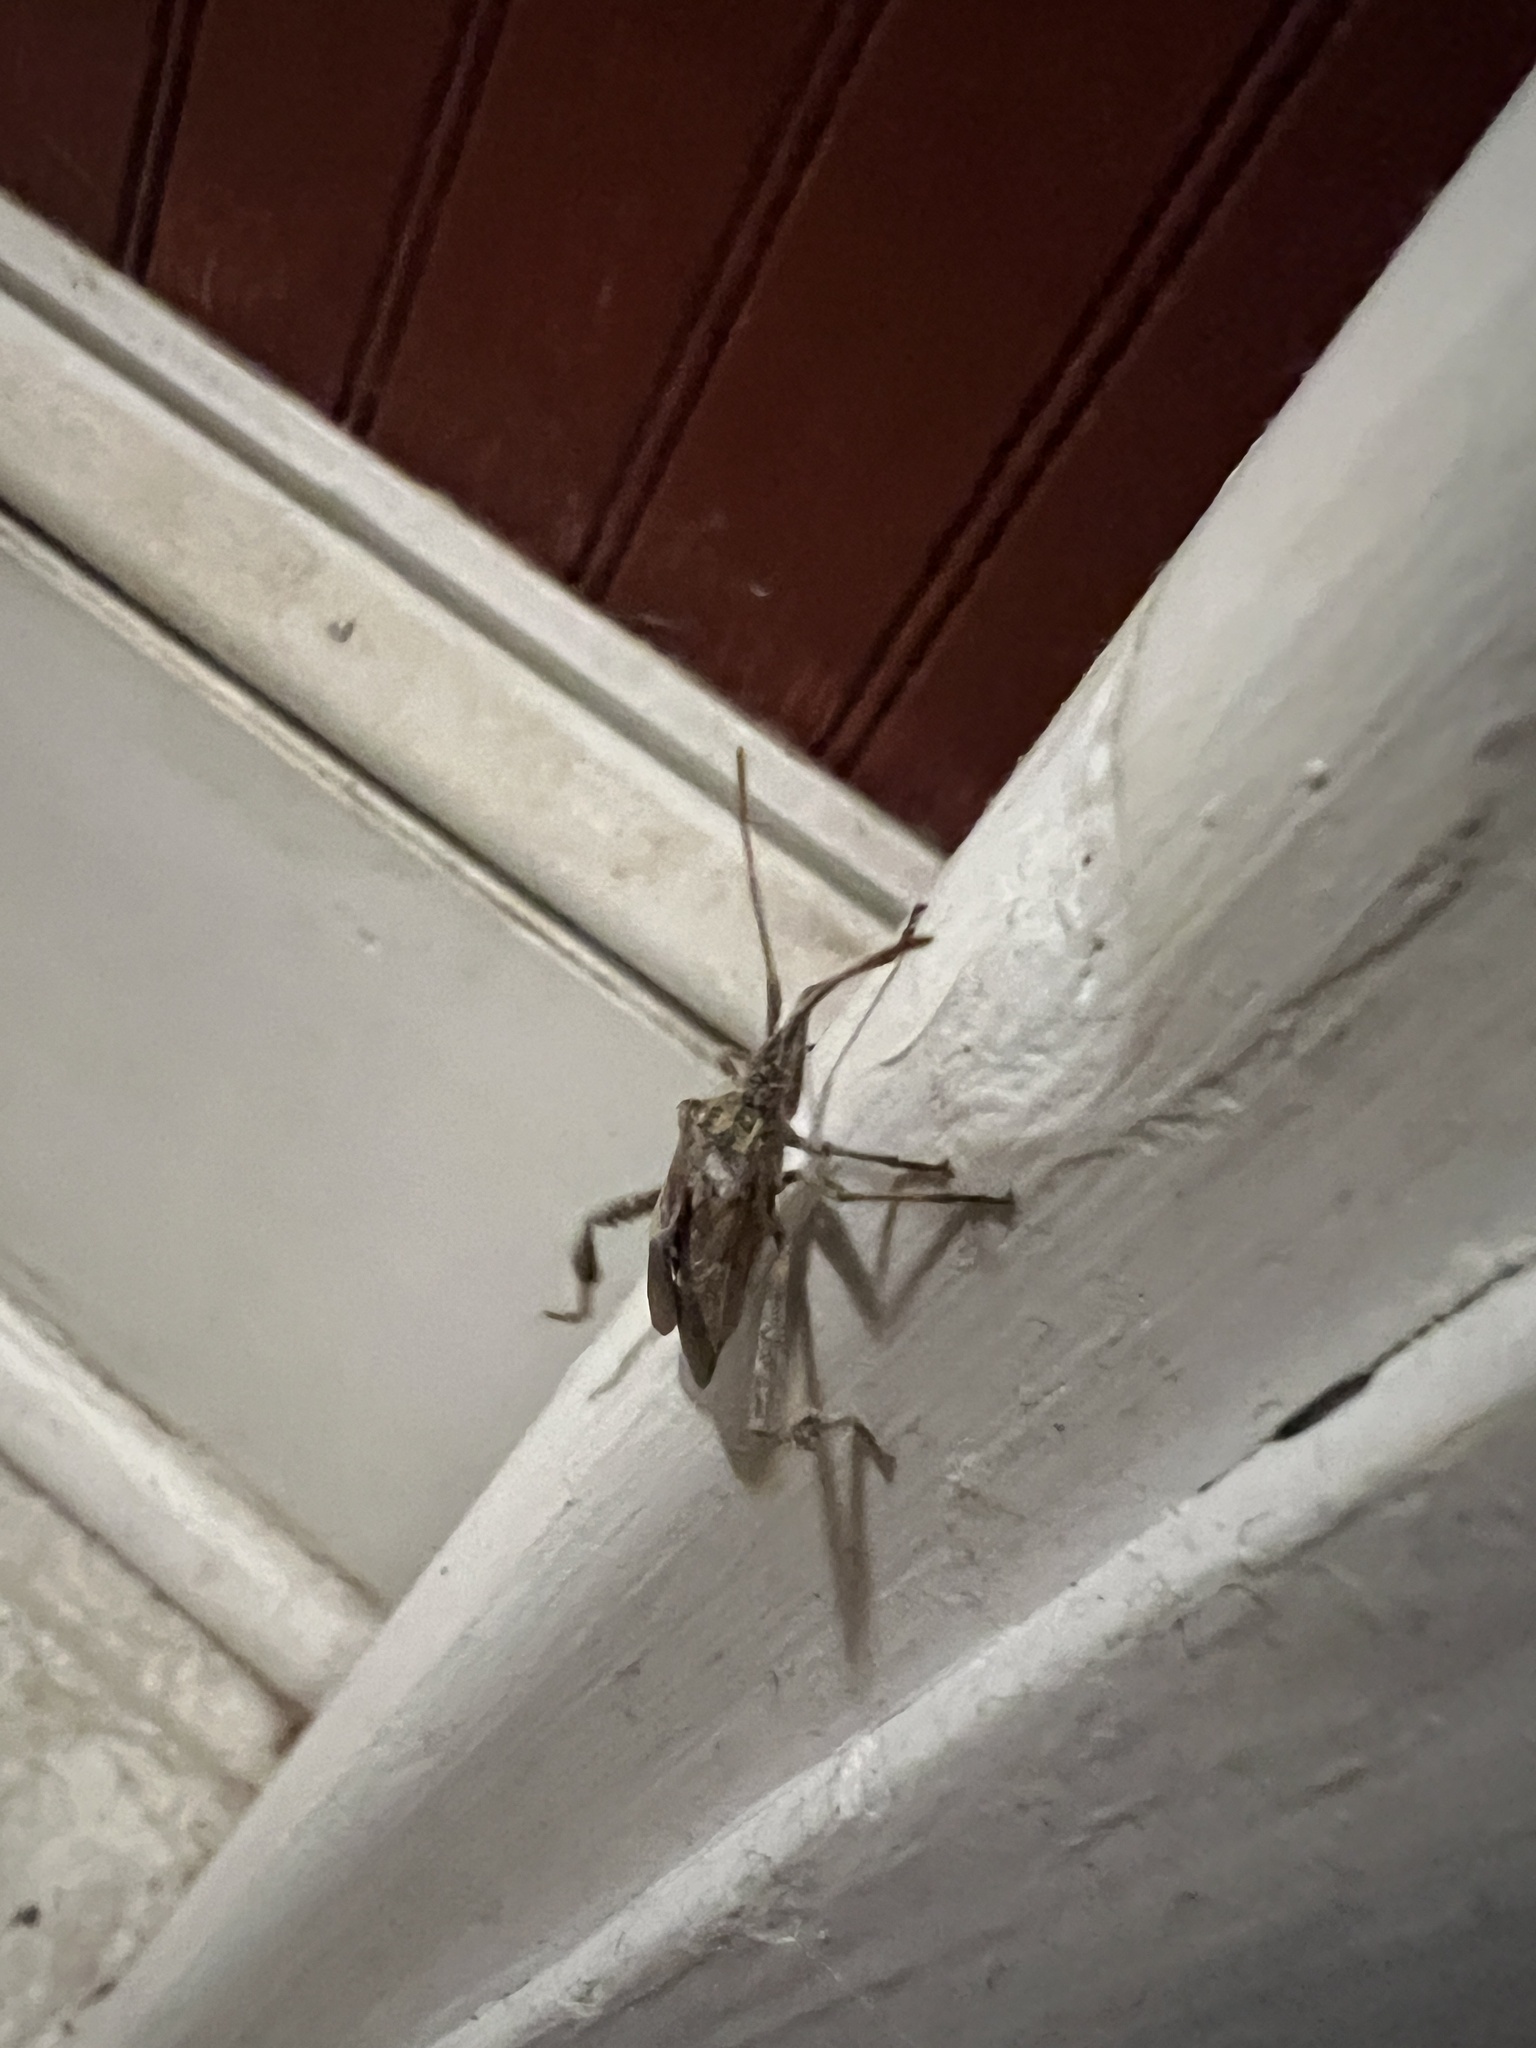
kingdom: Animalia
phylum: Arthropoda
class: Insecta
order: Hemiptera
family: Coreidae
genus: Leptoglossus
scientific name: Leptoglossus occidentalis
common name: Western conifer-seed bug
